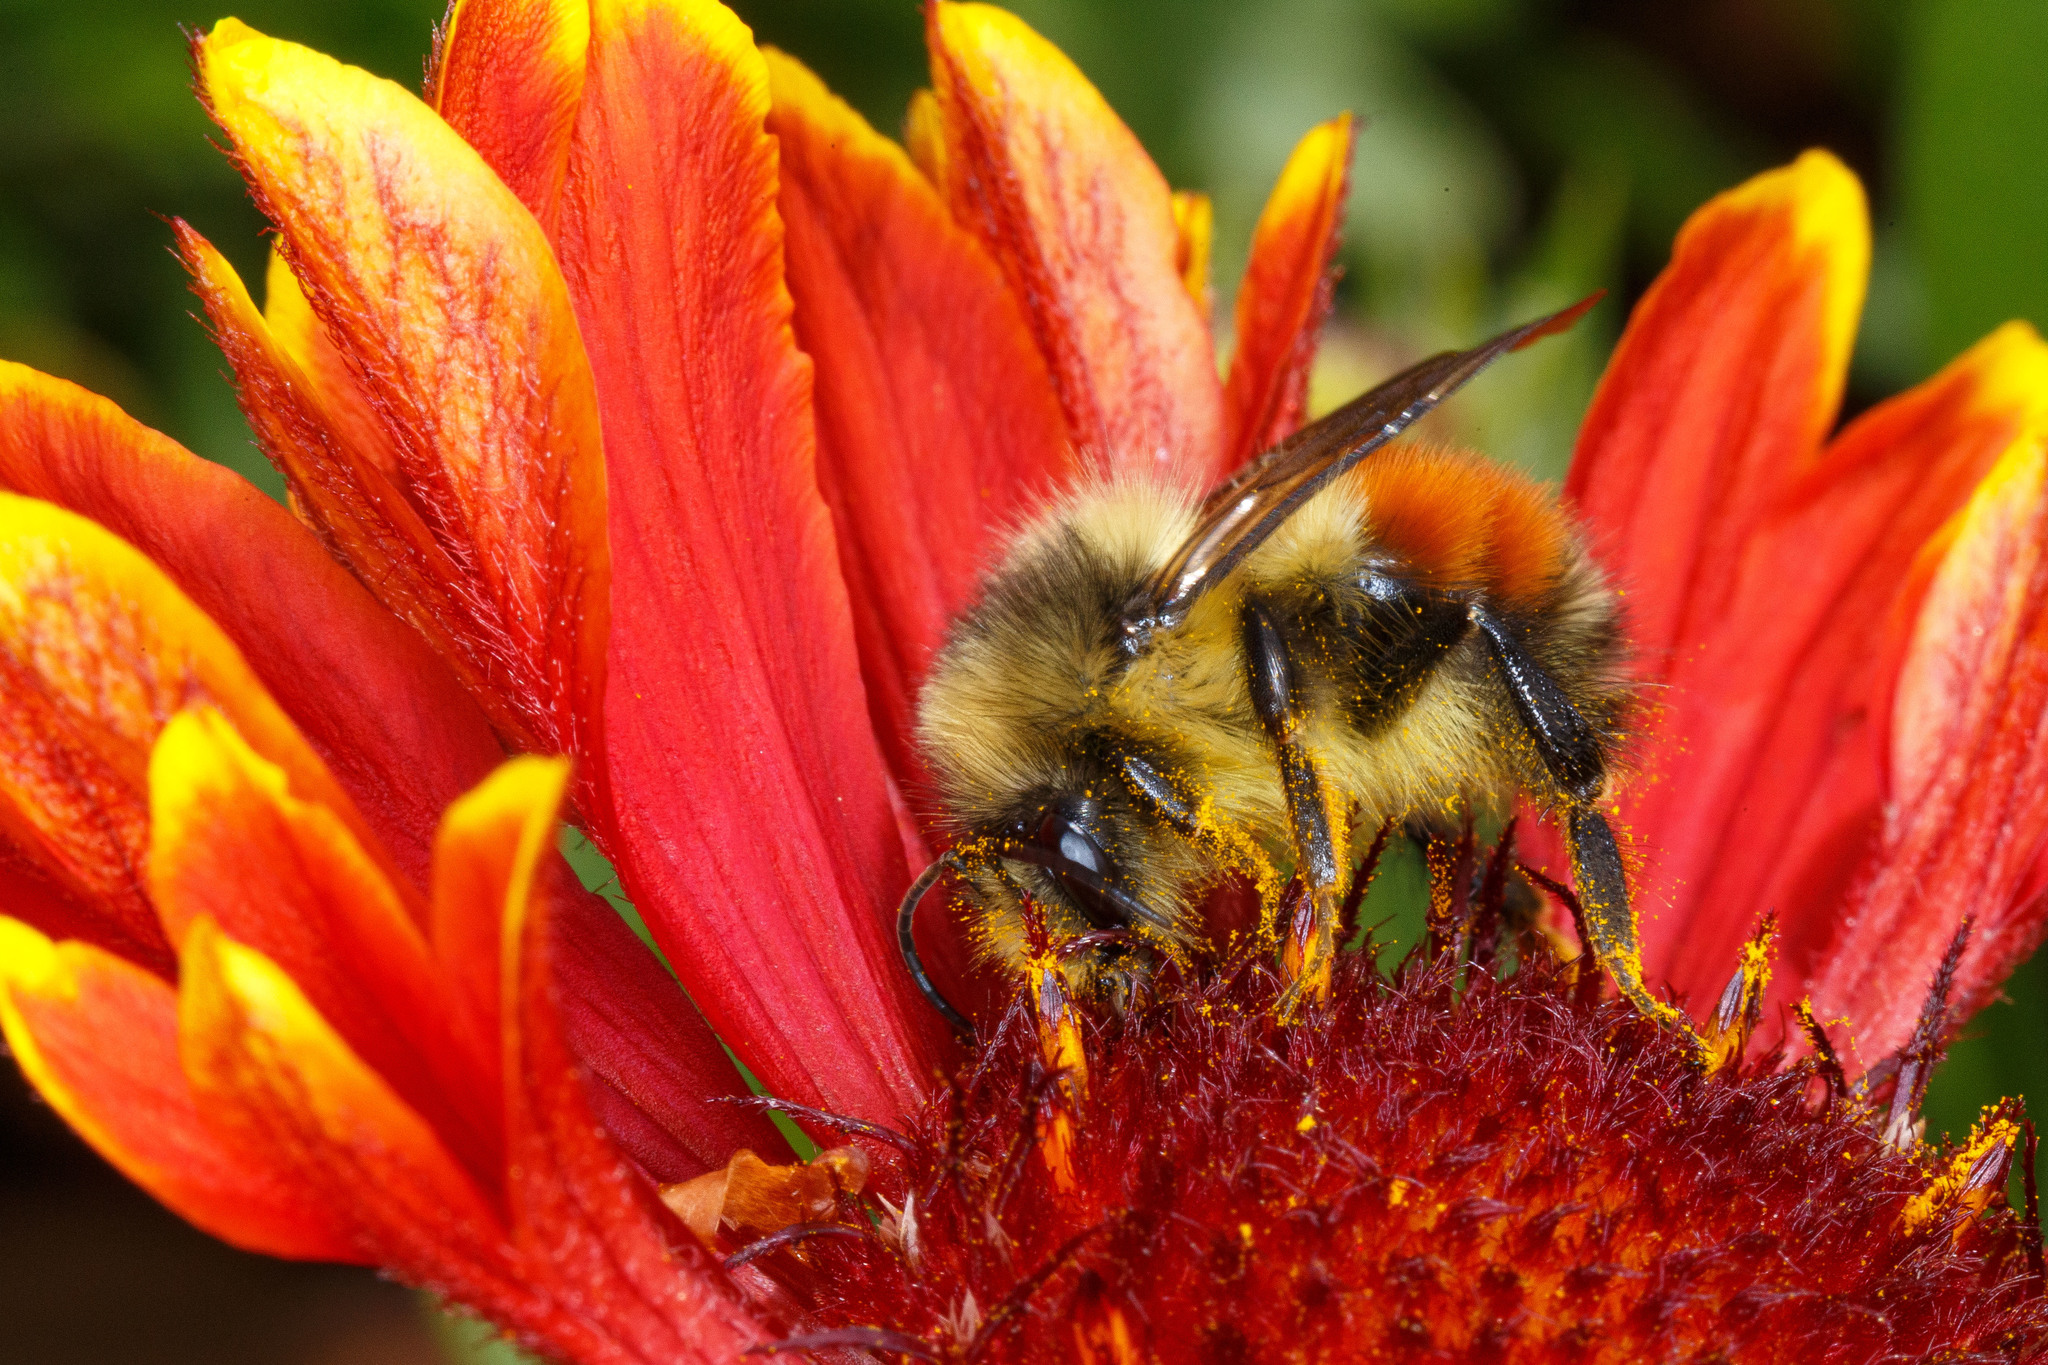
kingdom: Animalia
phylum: Arthropoda
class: Insecta
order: Hymenoptera
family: Apidae
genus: Bombus
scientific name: Bombus melanopygus
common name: Black tail bumble bee
